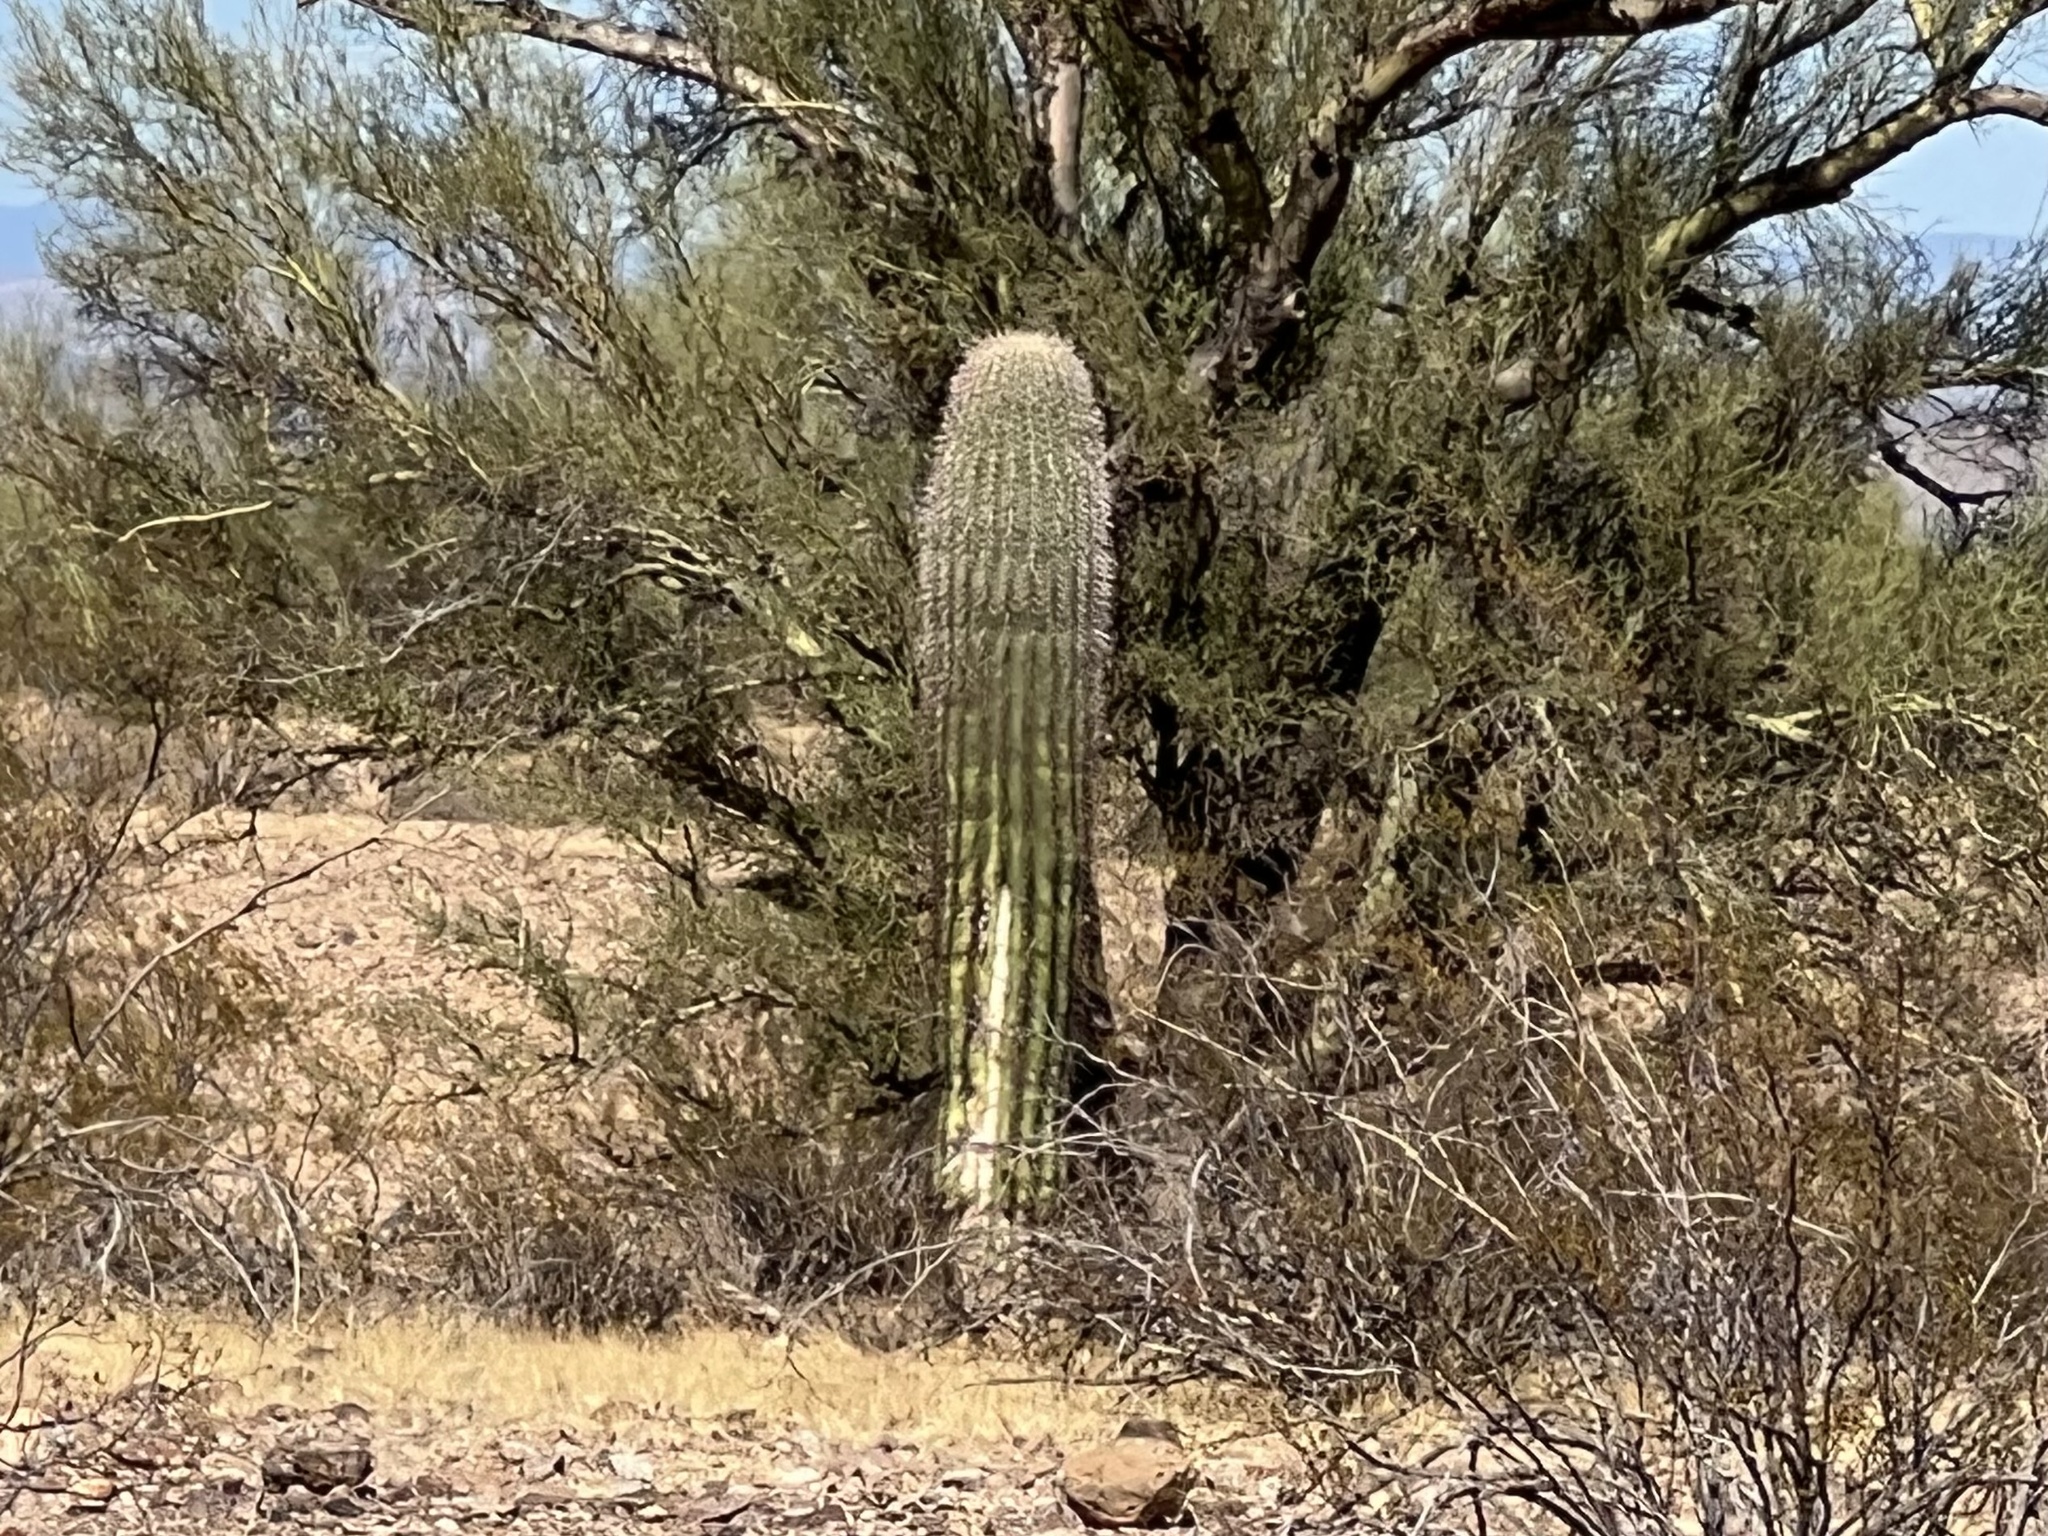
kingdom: Plantae
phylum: Tracheophyta
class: Magnoliopsida
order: Caryophyllales
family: Cactaceae
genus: Carnegiea
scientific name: Carnegiea gigantea
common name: Saguaro
